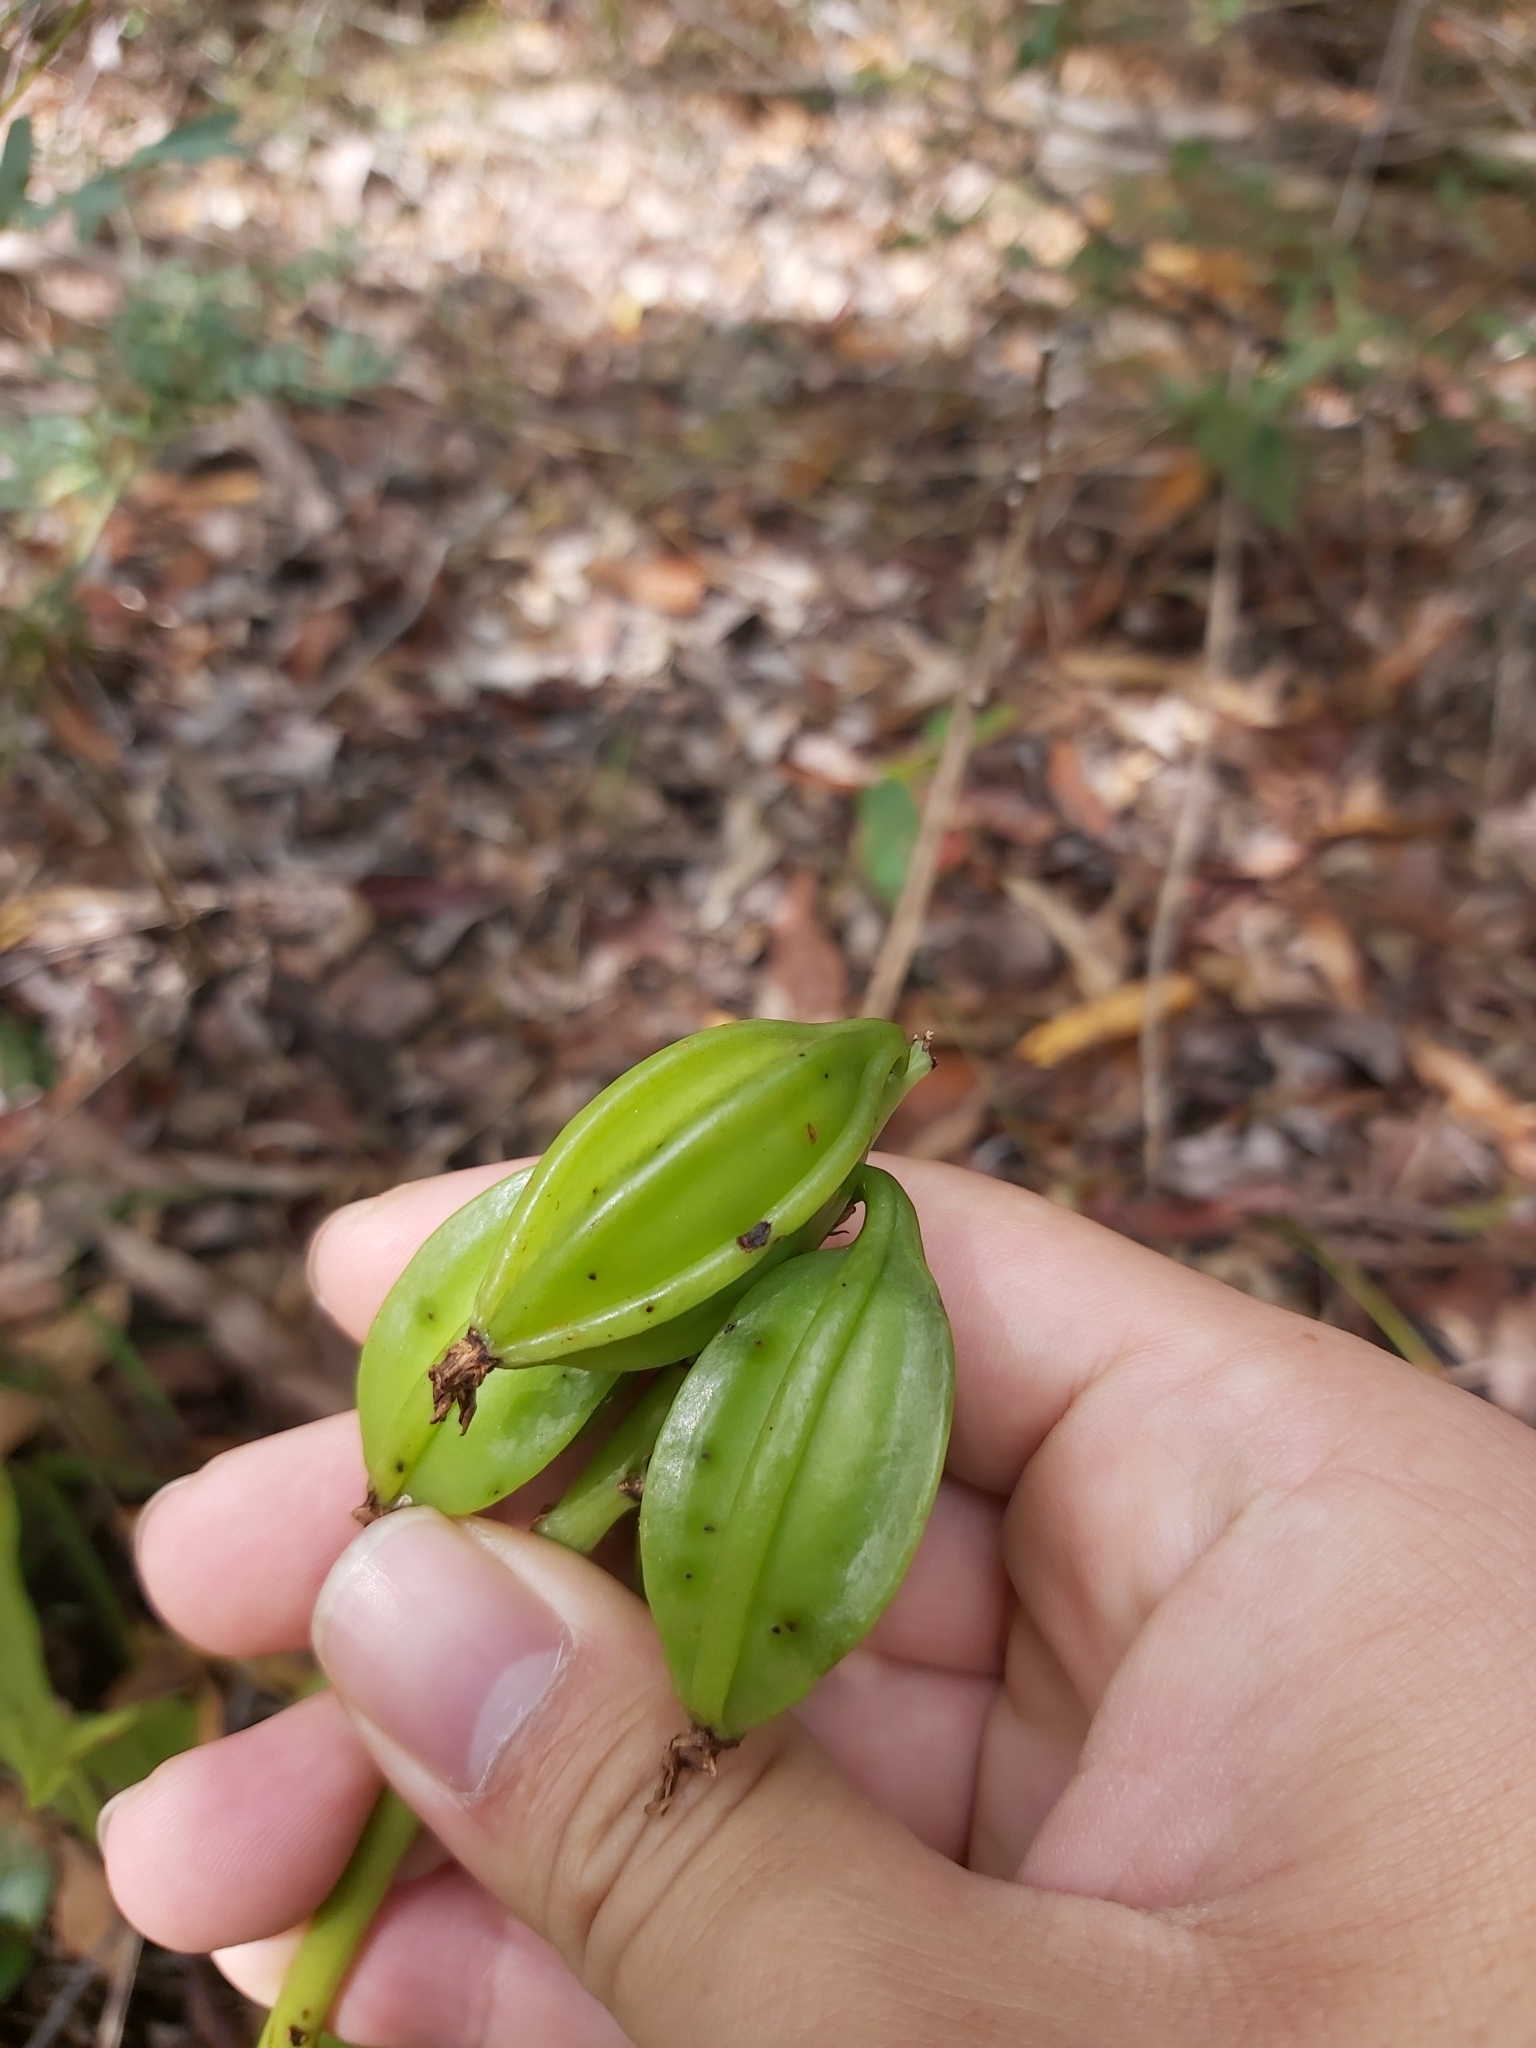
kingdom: Plantae
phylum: Tracheophyta
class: Liliopsida
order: Asparagales
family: Orchidaceae
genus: Eulophia
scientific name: Eulophia cernua
